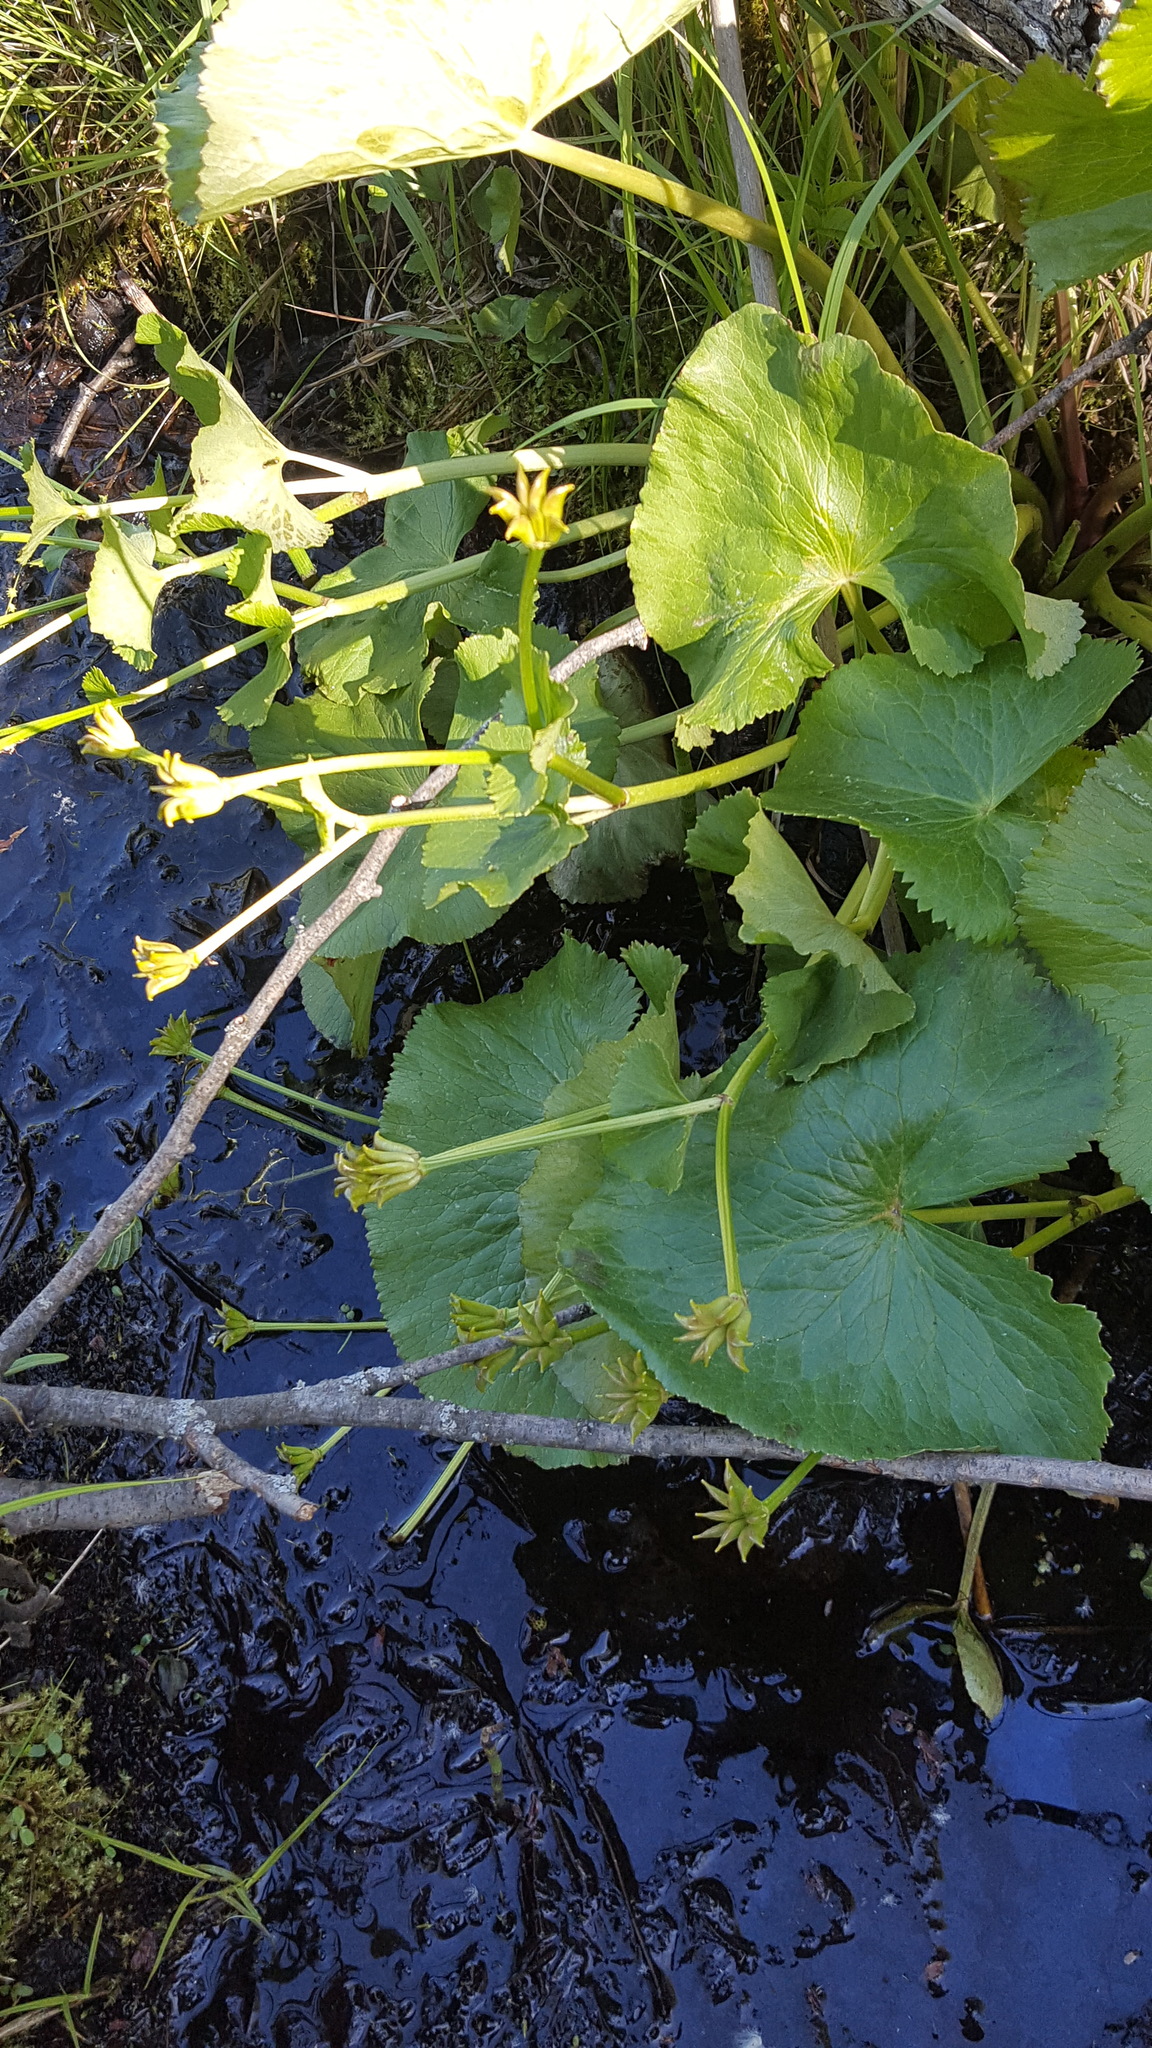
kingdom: Plantae
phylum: Tracheophyta
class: Magnoliopsida
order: Ranunculales
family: Ranunculaceae
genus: Caltha
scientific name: Caltha palustris
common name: Marsh marigold
